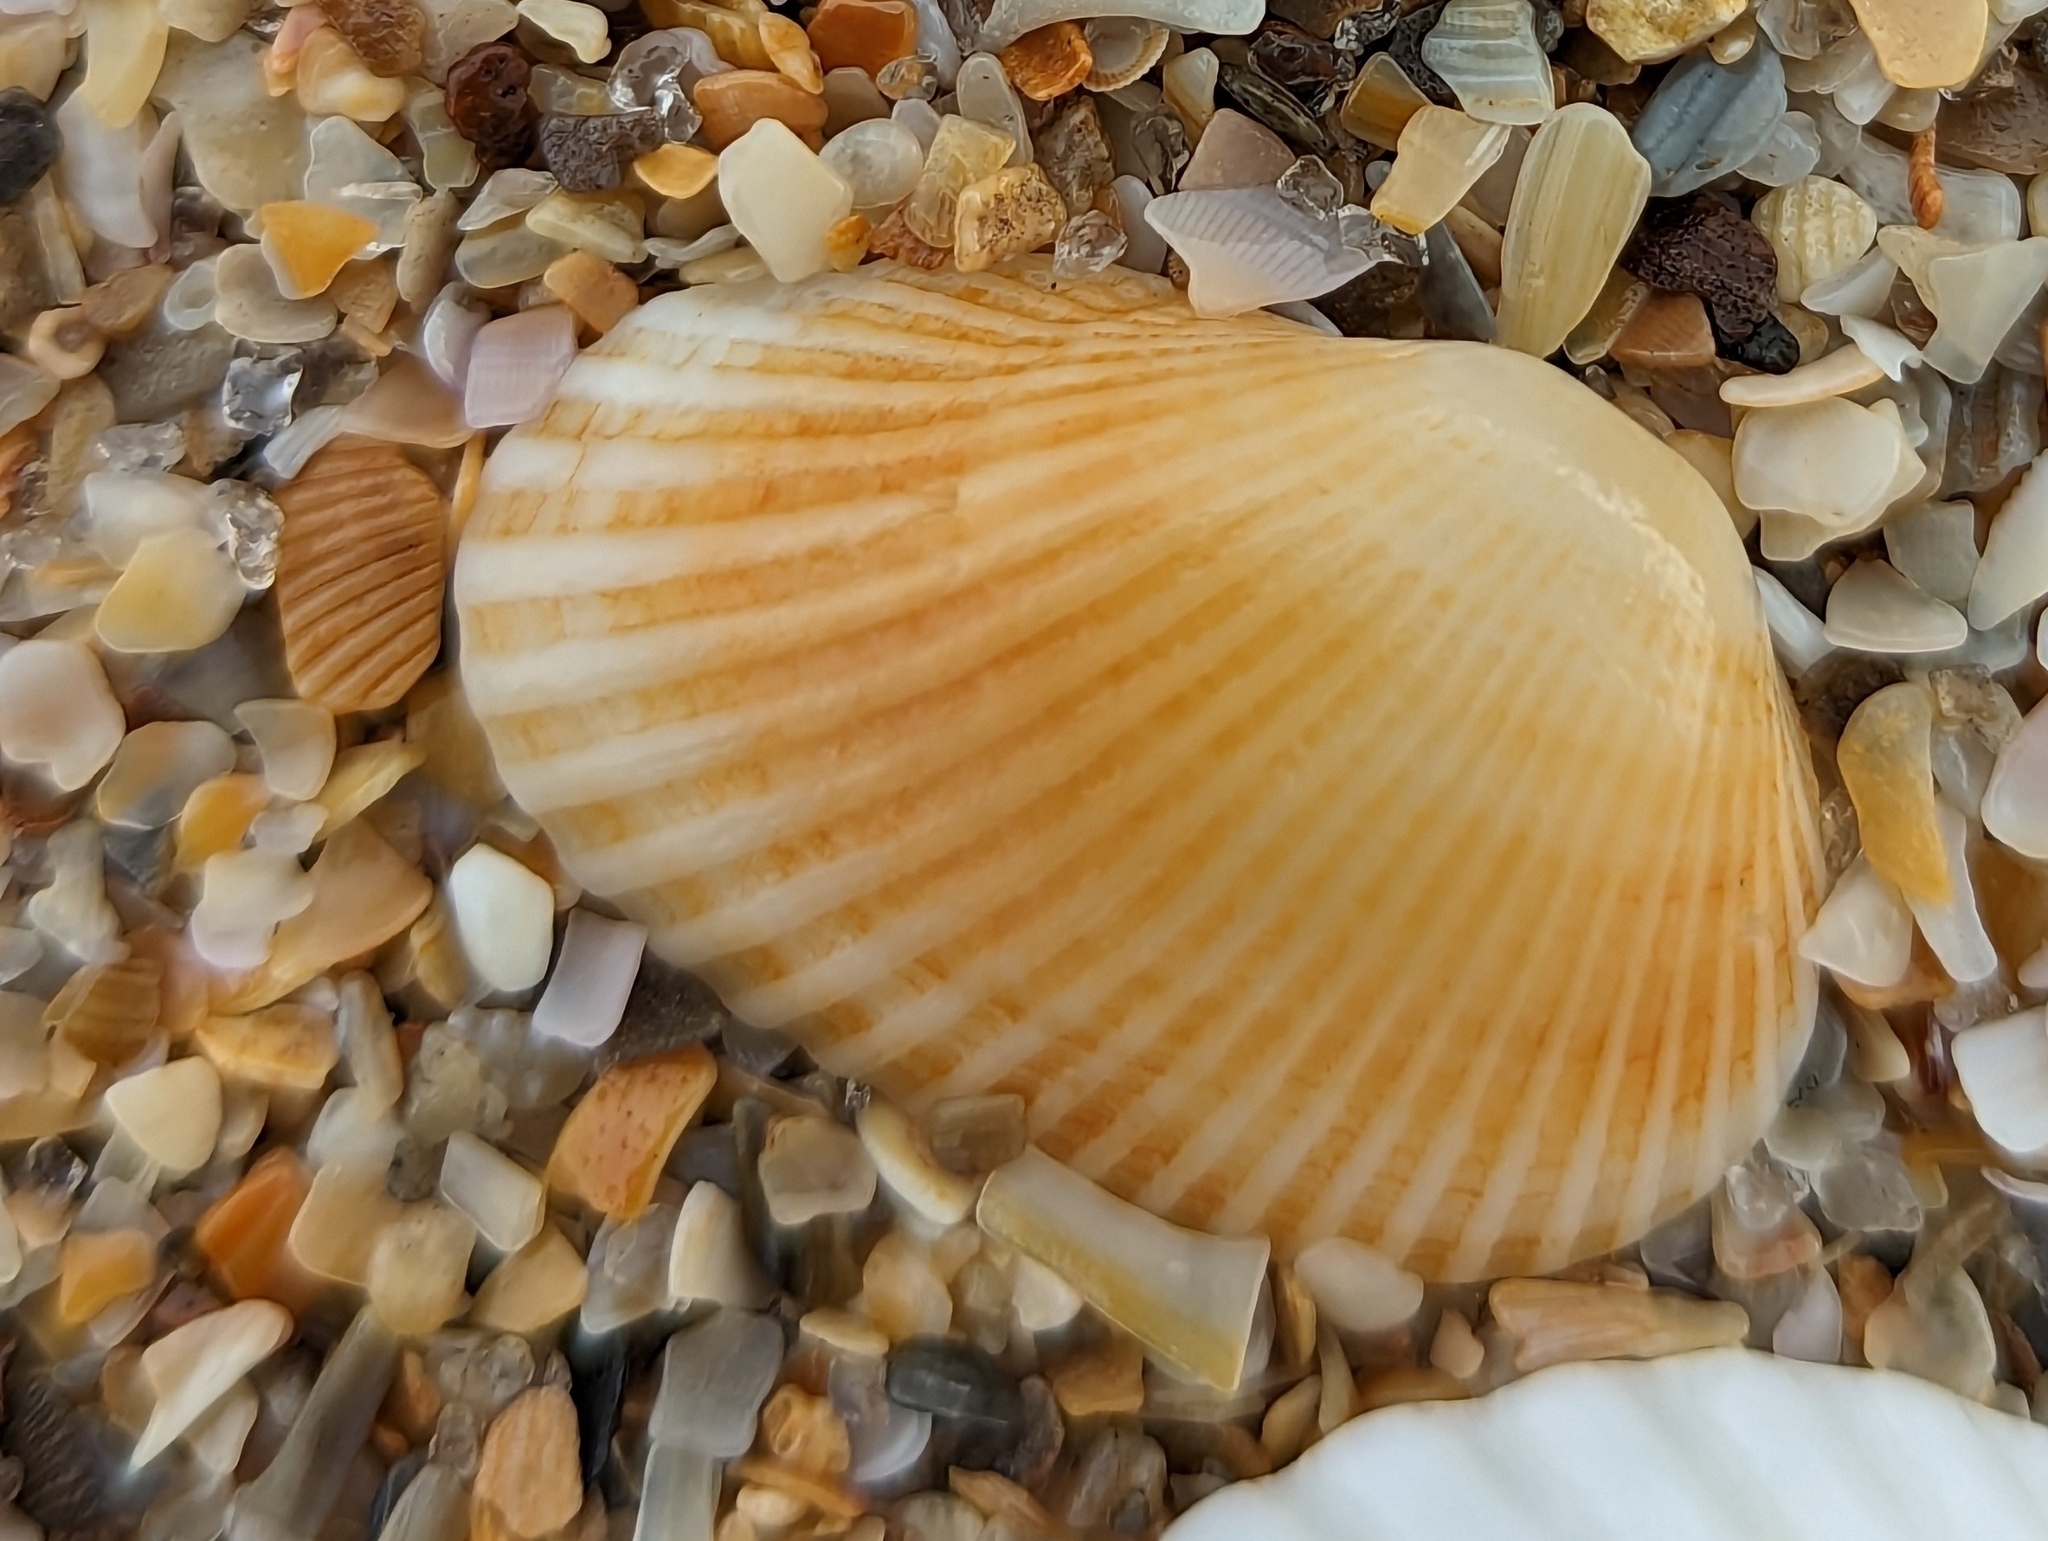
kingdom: Animalia
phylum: Mollusca
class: Bivalvia
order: Arcida
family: Arcidae
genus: Anadara
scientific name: Anadara transversa
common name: Transverse ark
